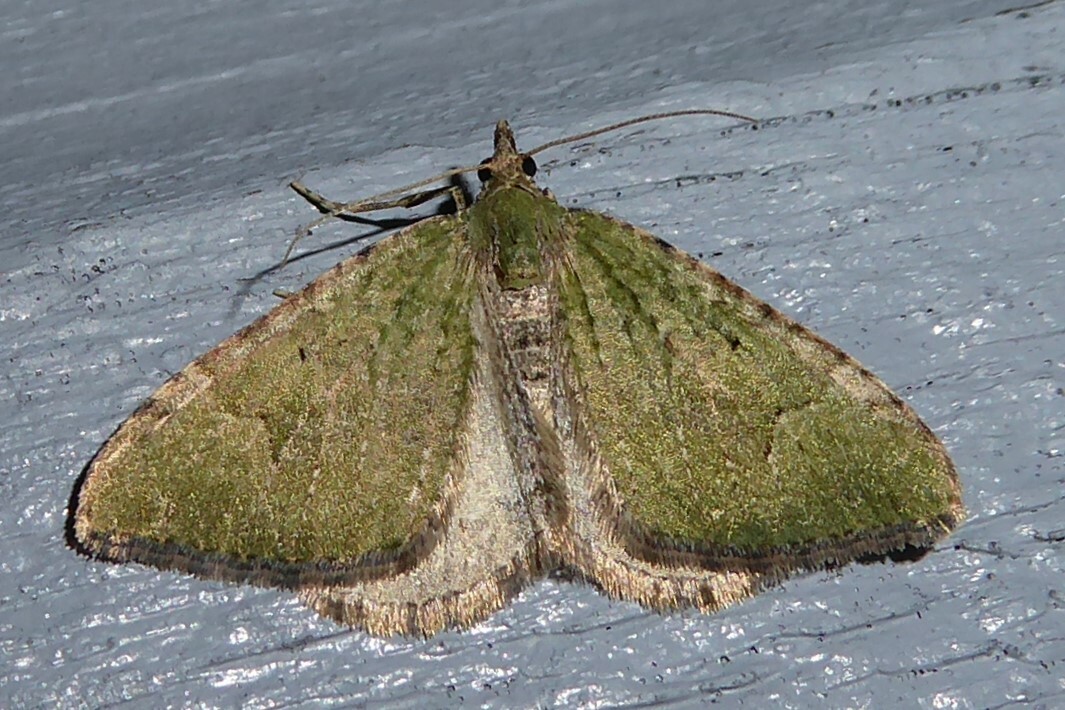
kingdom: Animalia
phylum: Arthropoda
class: Insecta
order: Lepidoptera
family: Geometridae
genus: Epyaxa
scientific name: Epyaxa rosearia
